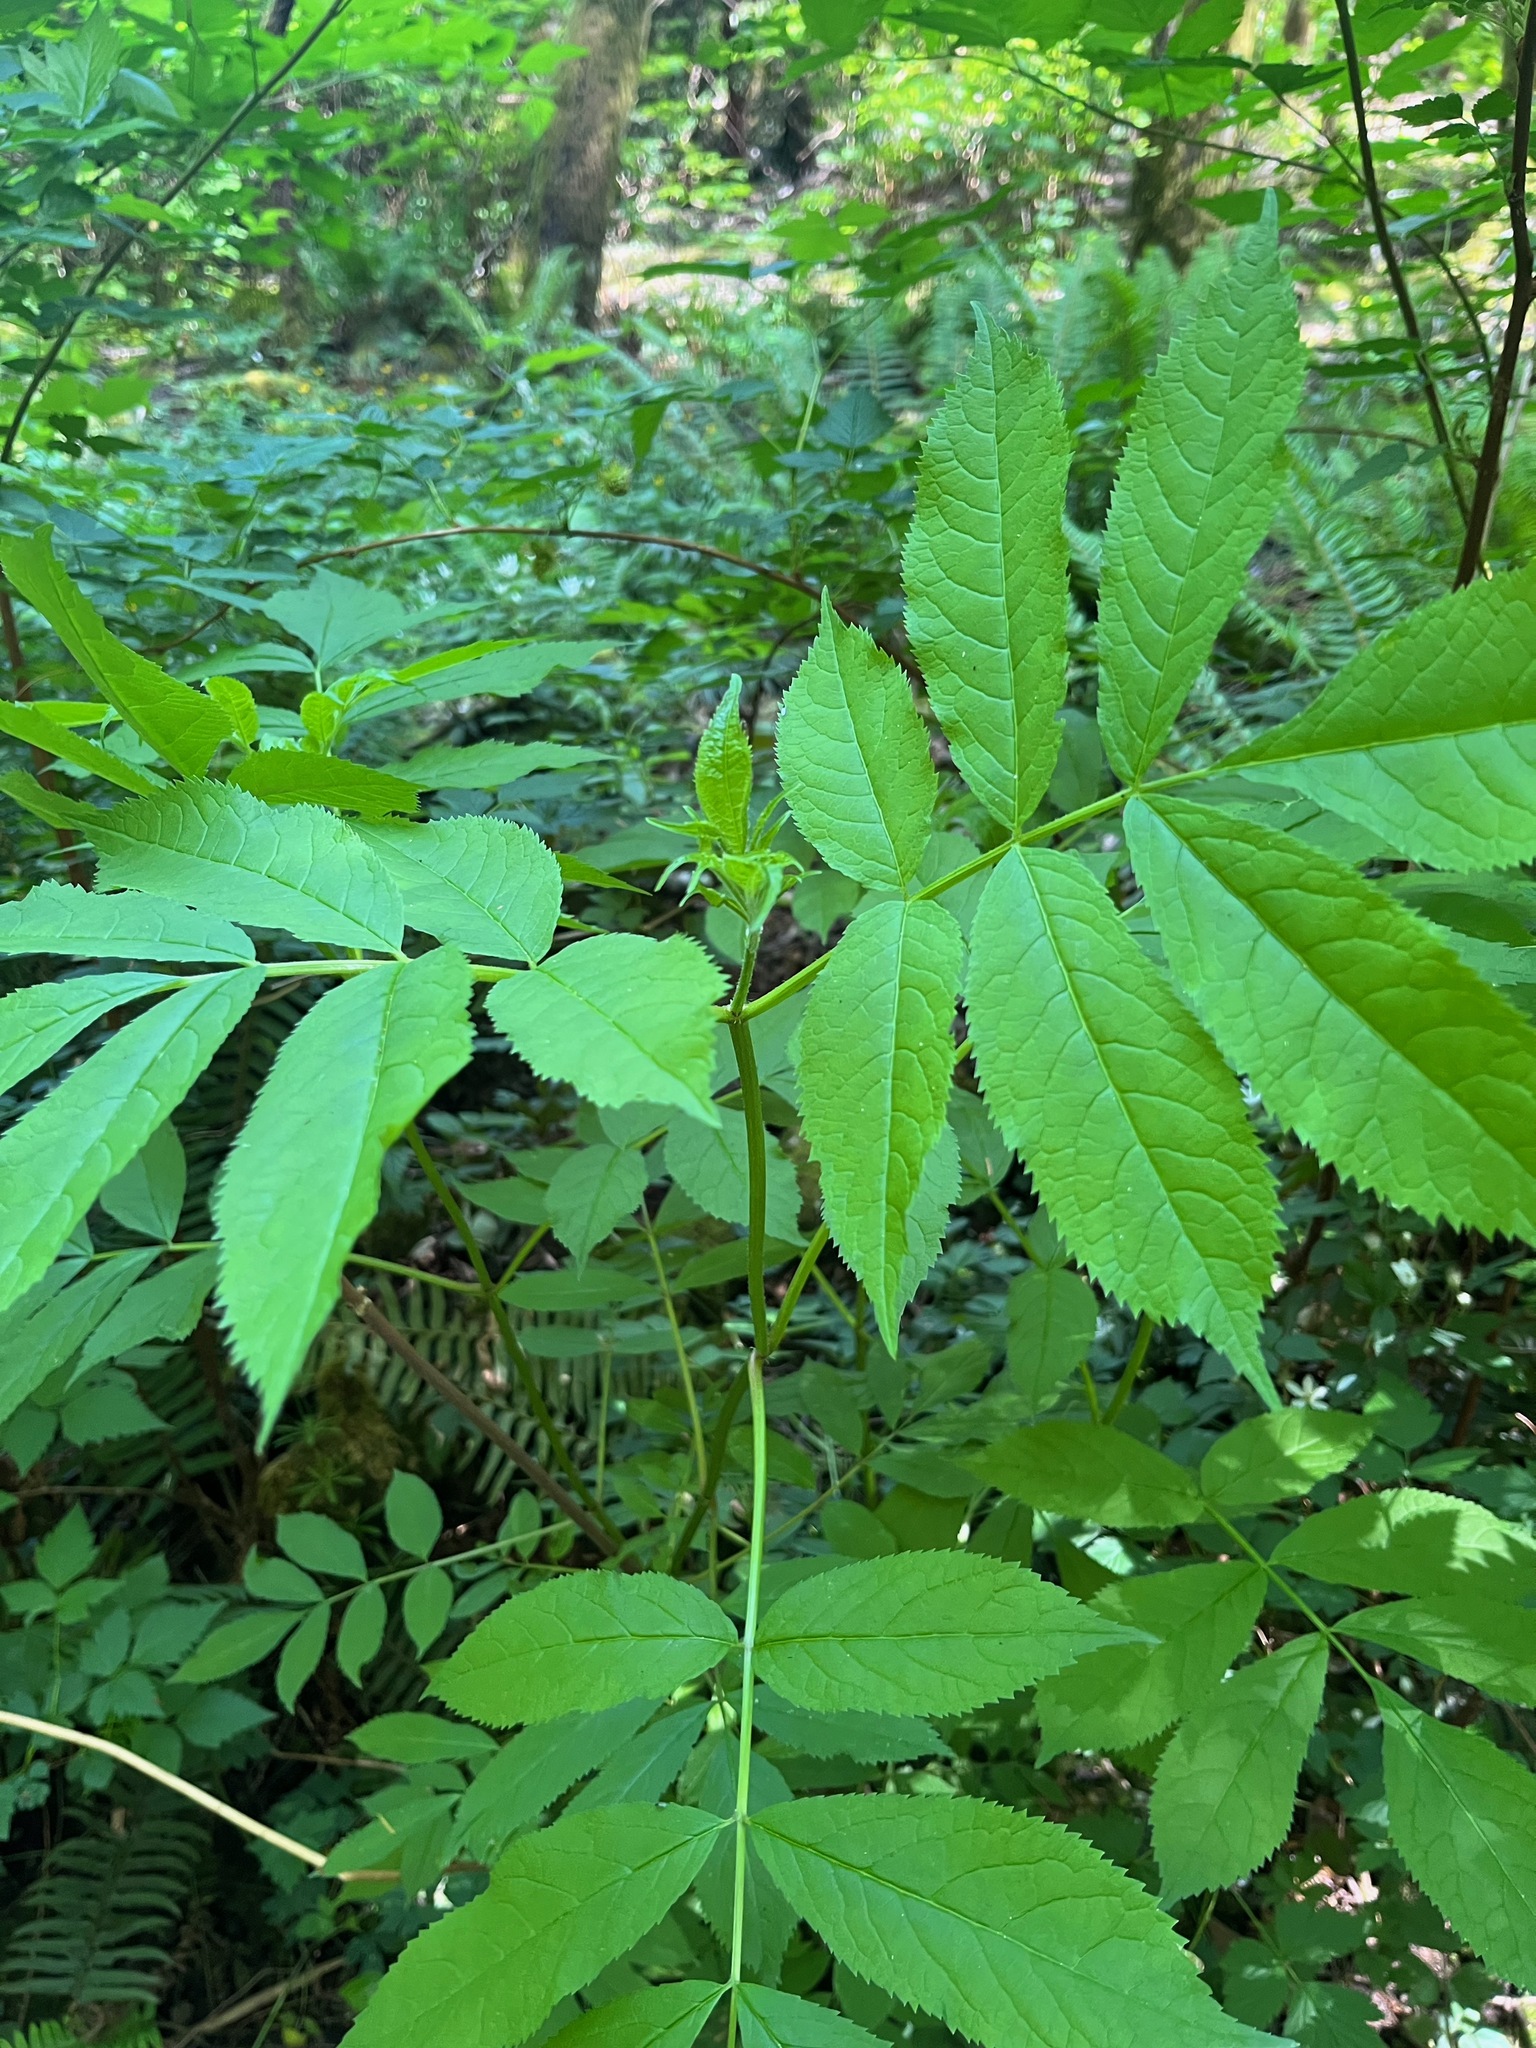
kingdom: Plantae
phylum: Tracheophyta
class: Magnoliopsida
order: Dipsacales
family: Viburnaceae
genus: Sambucus
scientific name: Sambucus racemosa
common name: Red-berried elder
